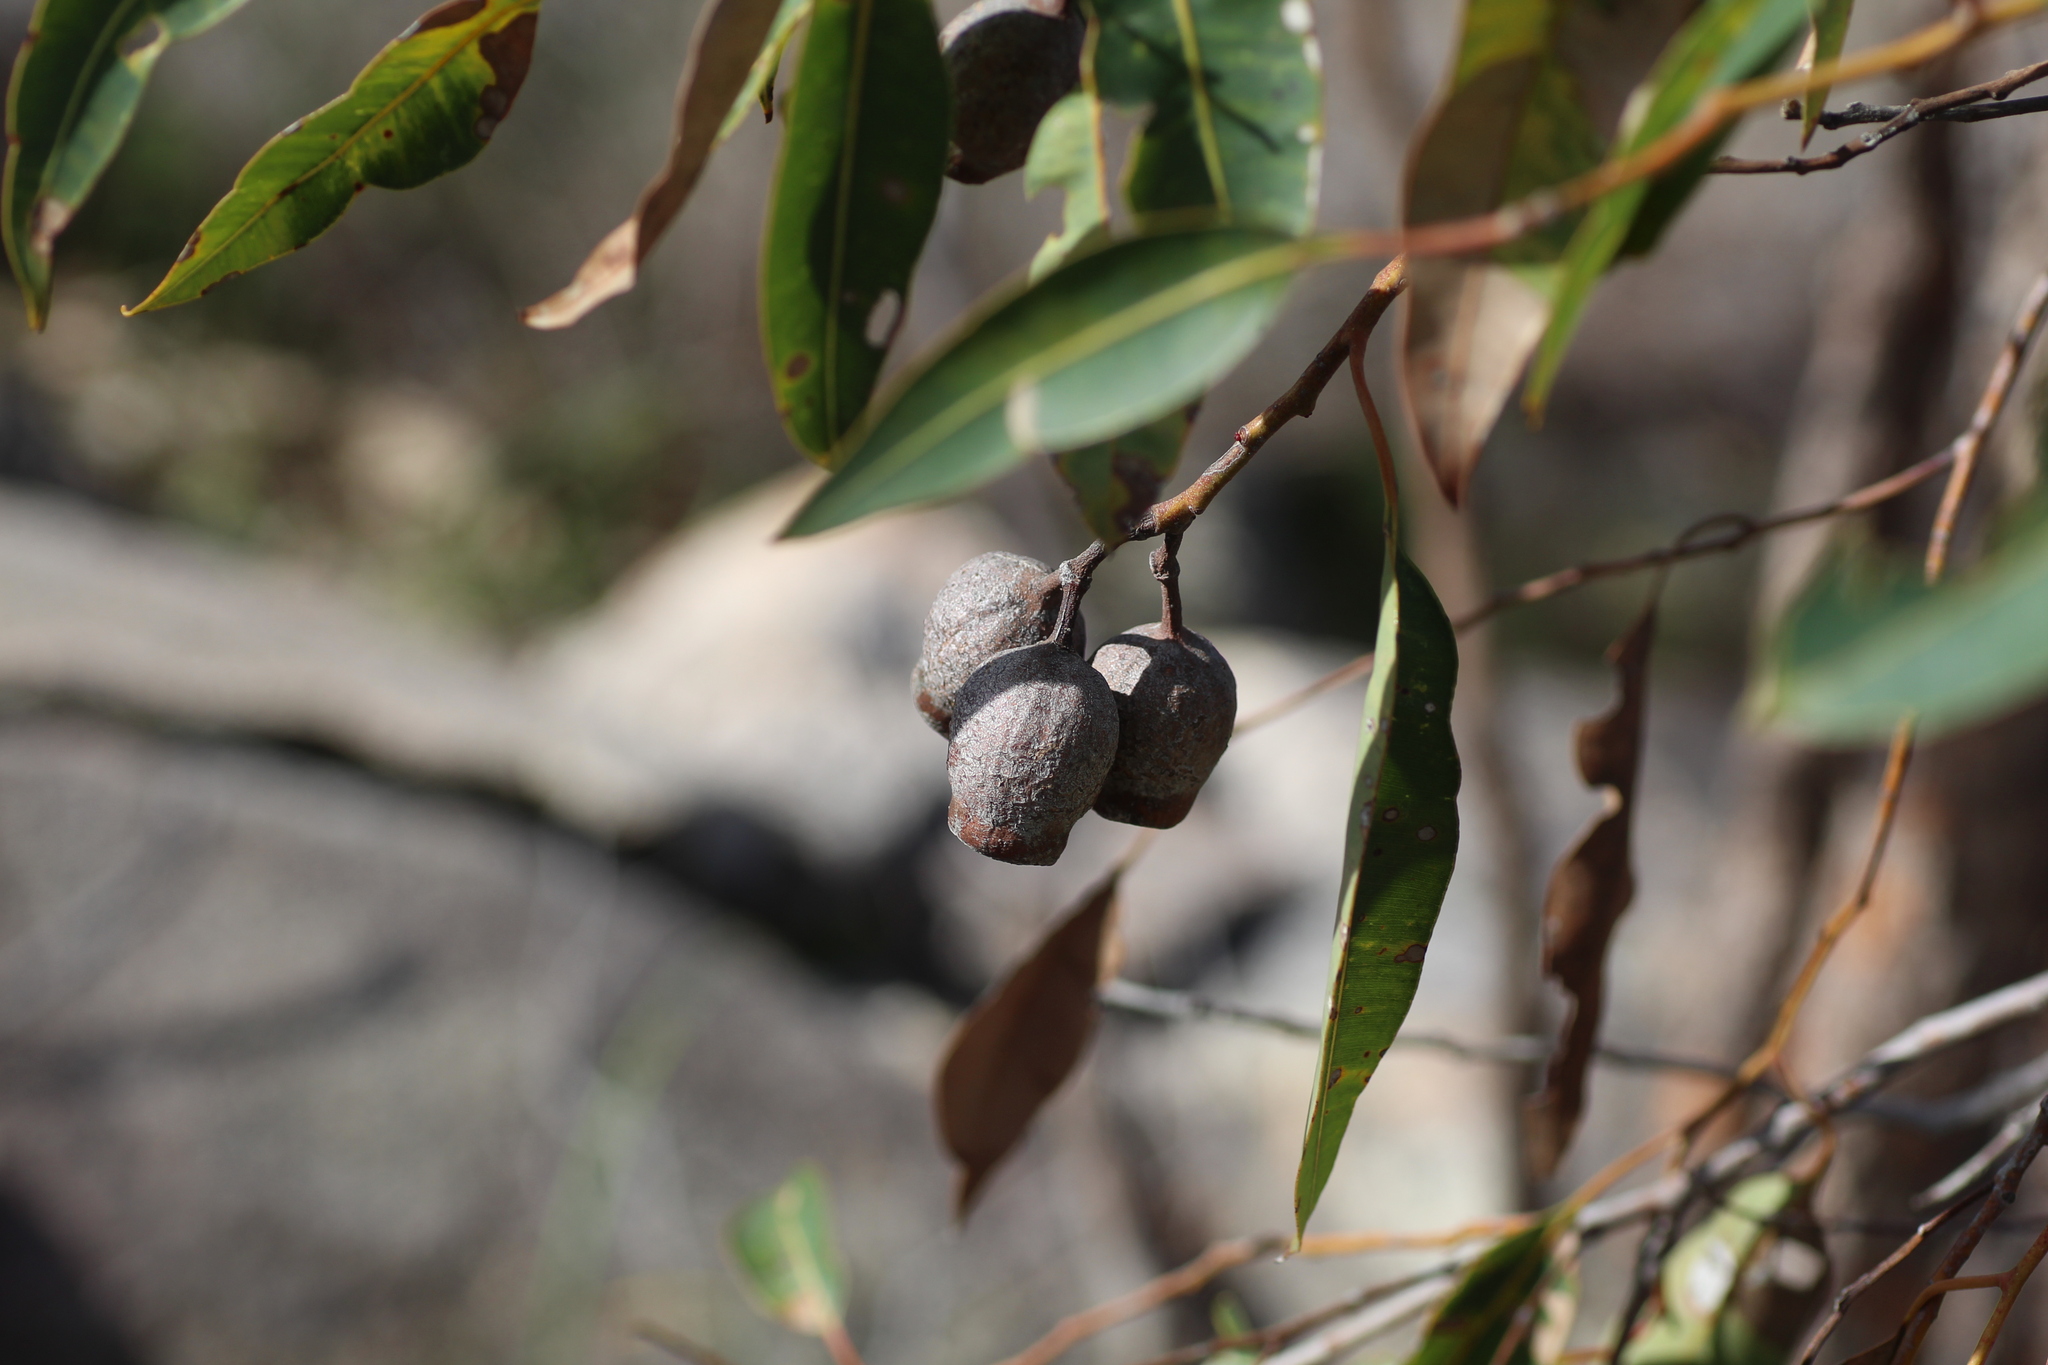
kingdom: Plantae
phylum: Tracheophyta
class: Magnoliopsida
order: Myrtales
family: Myrtaceae
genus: Corymbia
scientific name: Corymbia calophylla
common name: Marri
